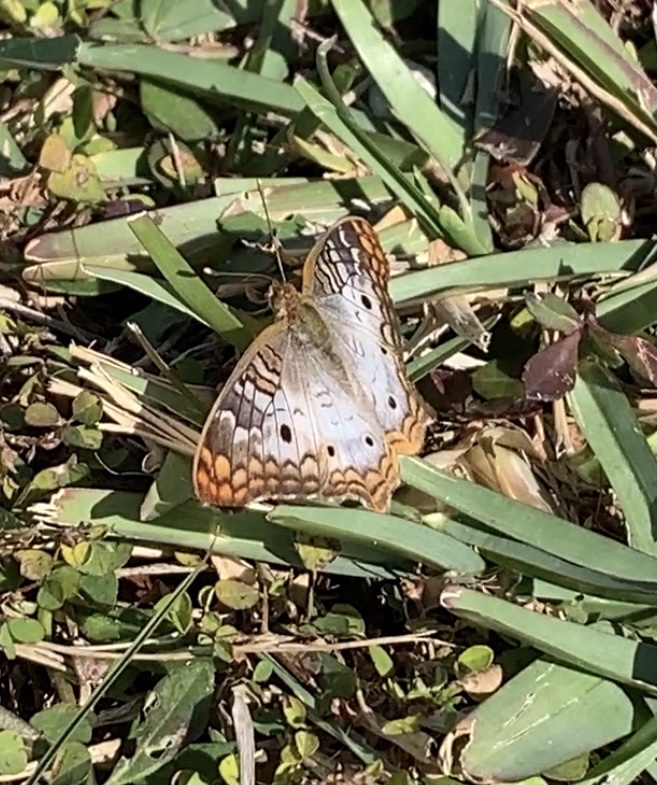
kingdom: Animalia
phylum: Arthropoda
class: Insecta
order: Lepidoptera
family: Nymphalidae
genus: Anartia
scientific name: Anartia jatrophae
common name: White peacock
